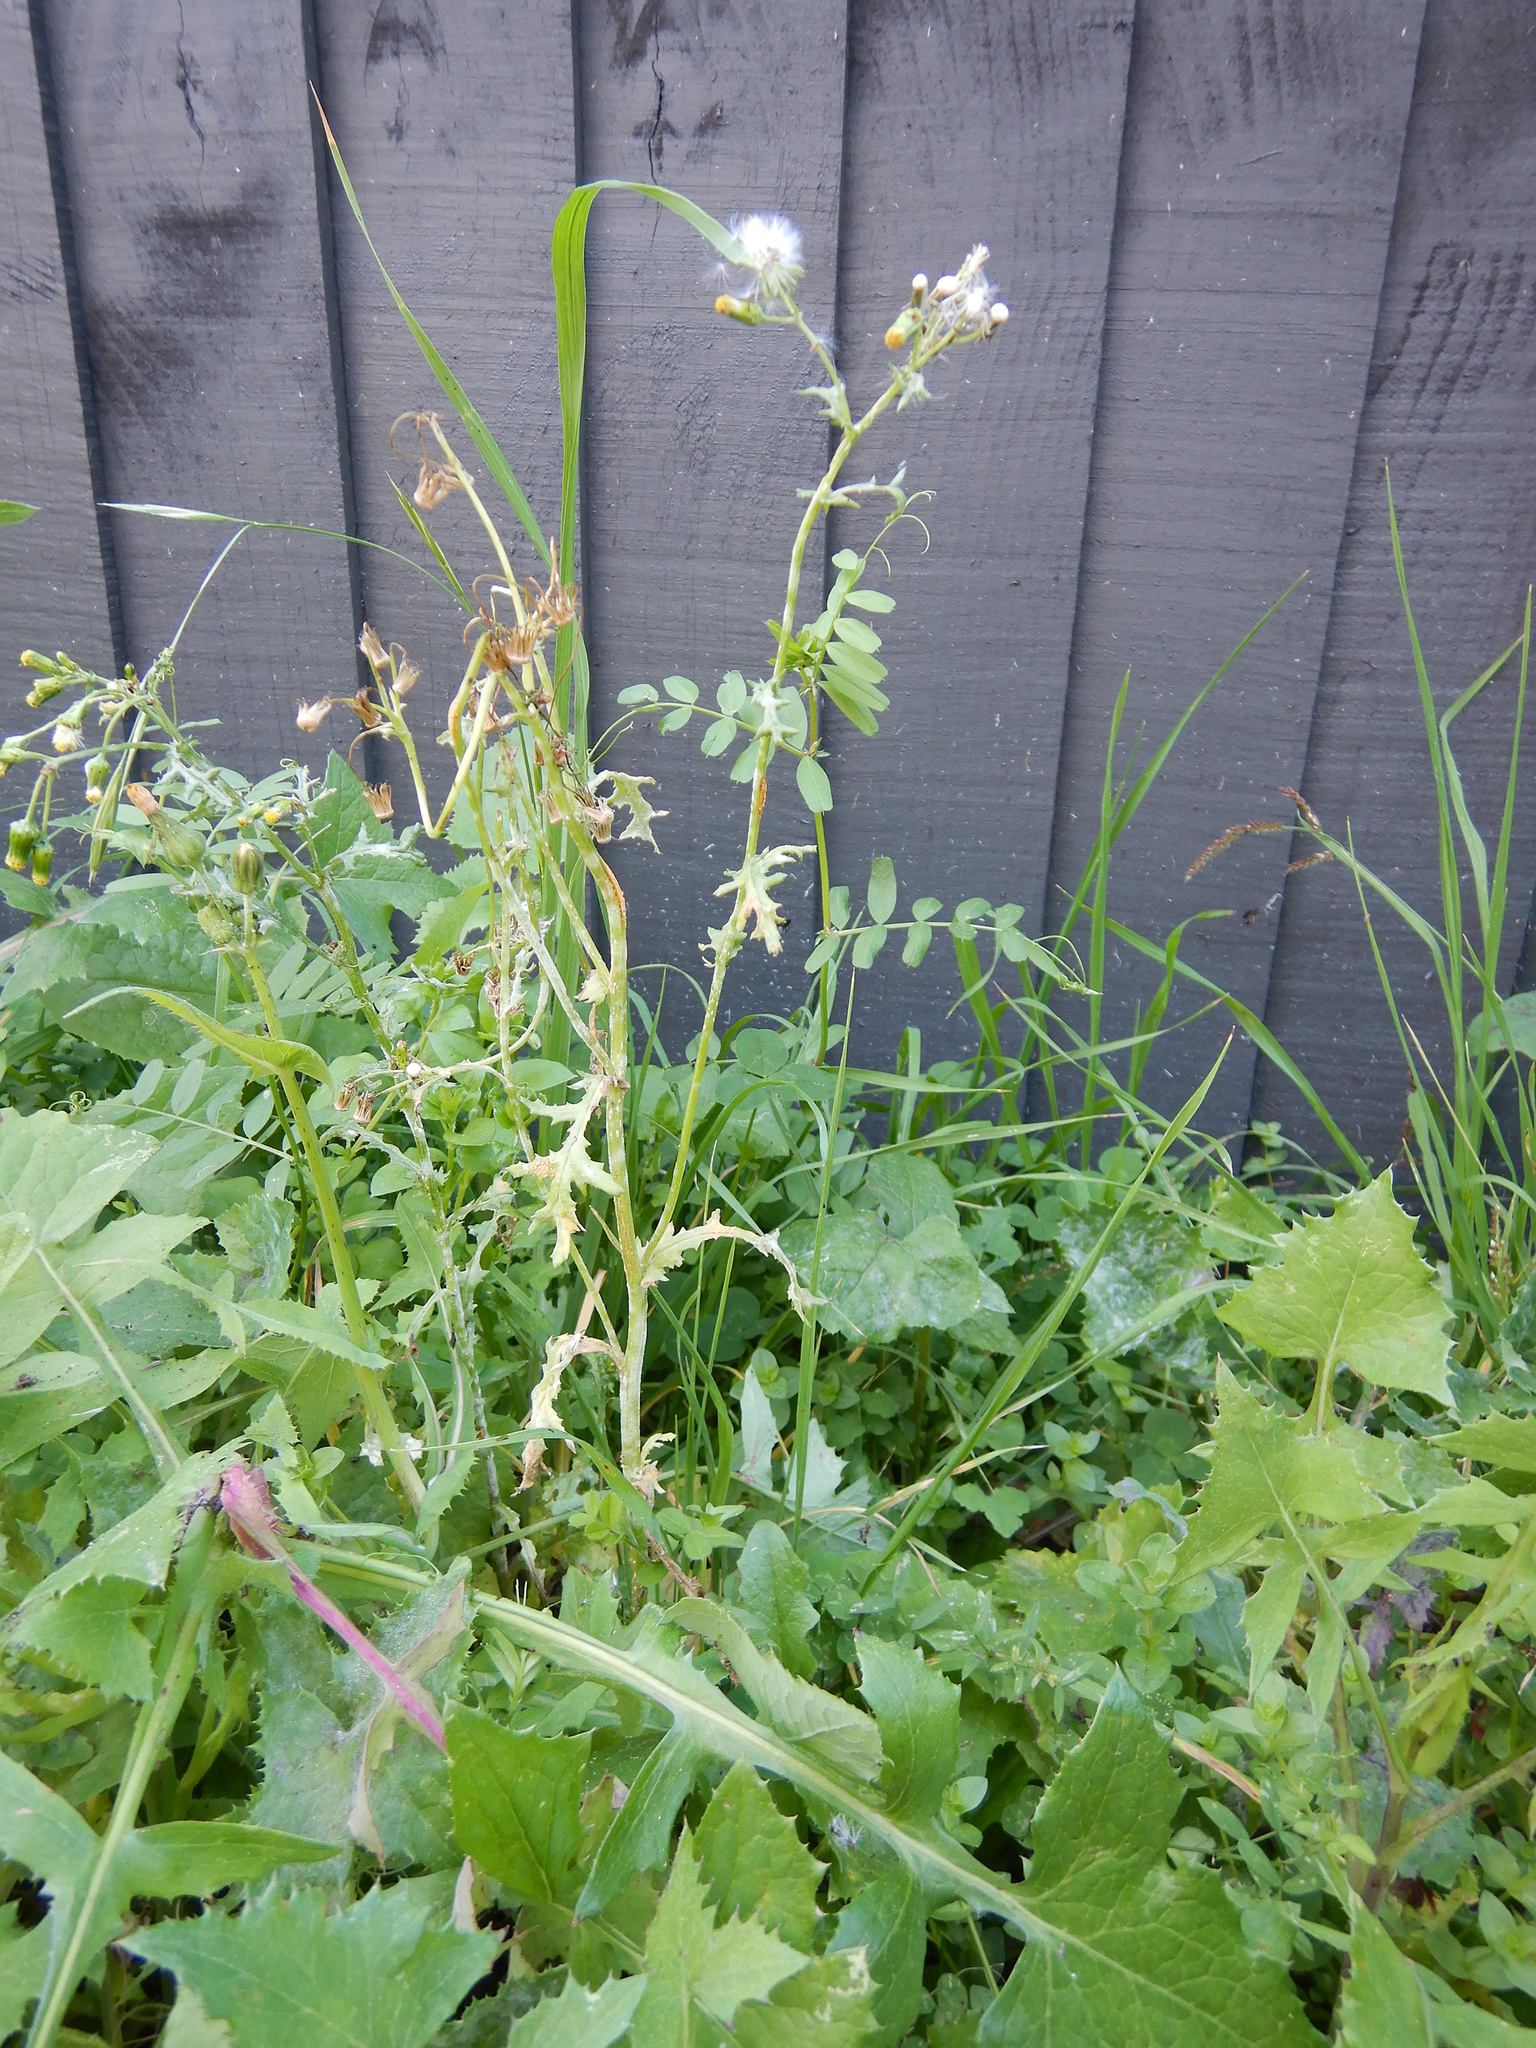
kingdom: Plantae
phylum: Tracheophyta
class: Magnoliopsida
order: Asterales
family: Asteraceae
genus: Senecio
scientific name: Senecio vulgaris
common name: Old-man-in-the-spring
